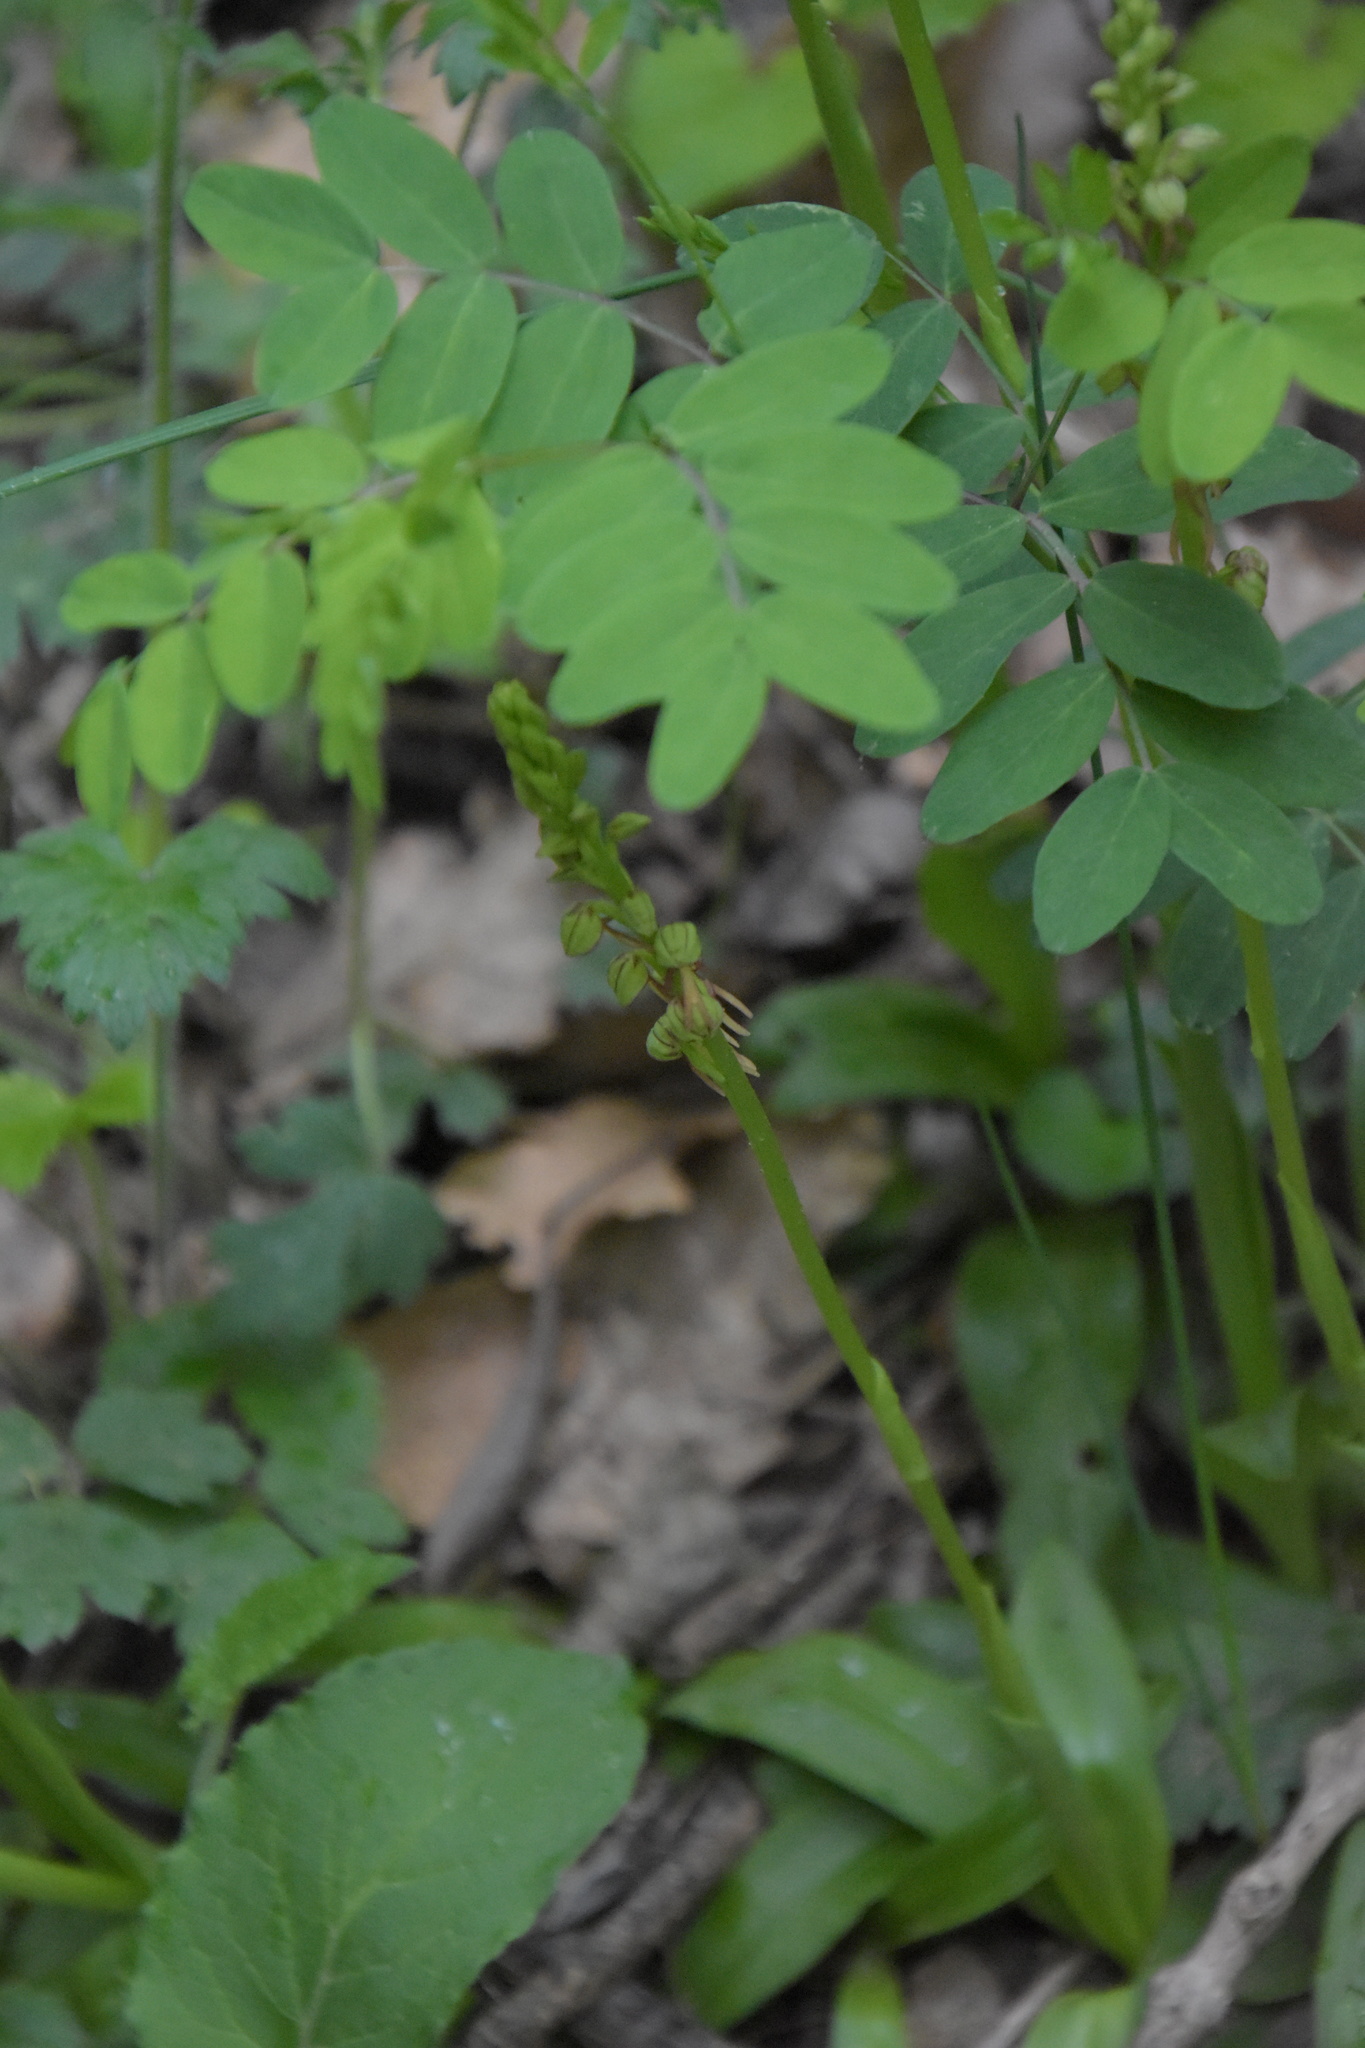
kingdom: Plantae
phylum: Tracheophyta
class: Liliopsida
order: Asparagales
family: Orchidaceae
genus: Orchis
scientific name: Orchis anthropophora
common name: Man orchid
